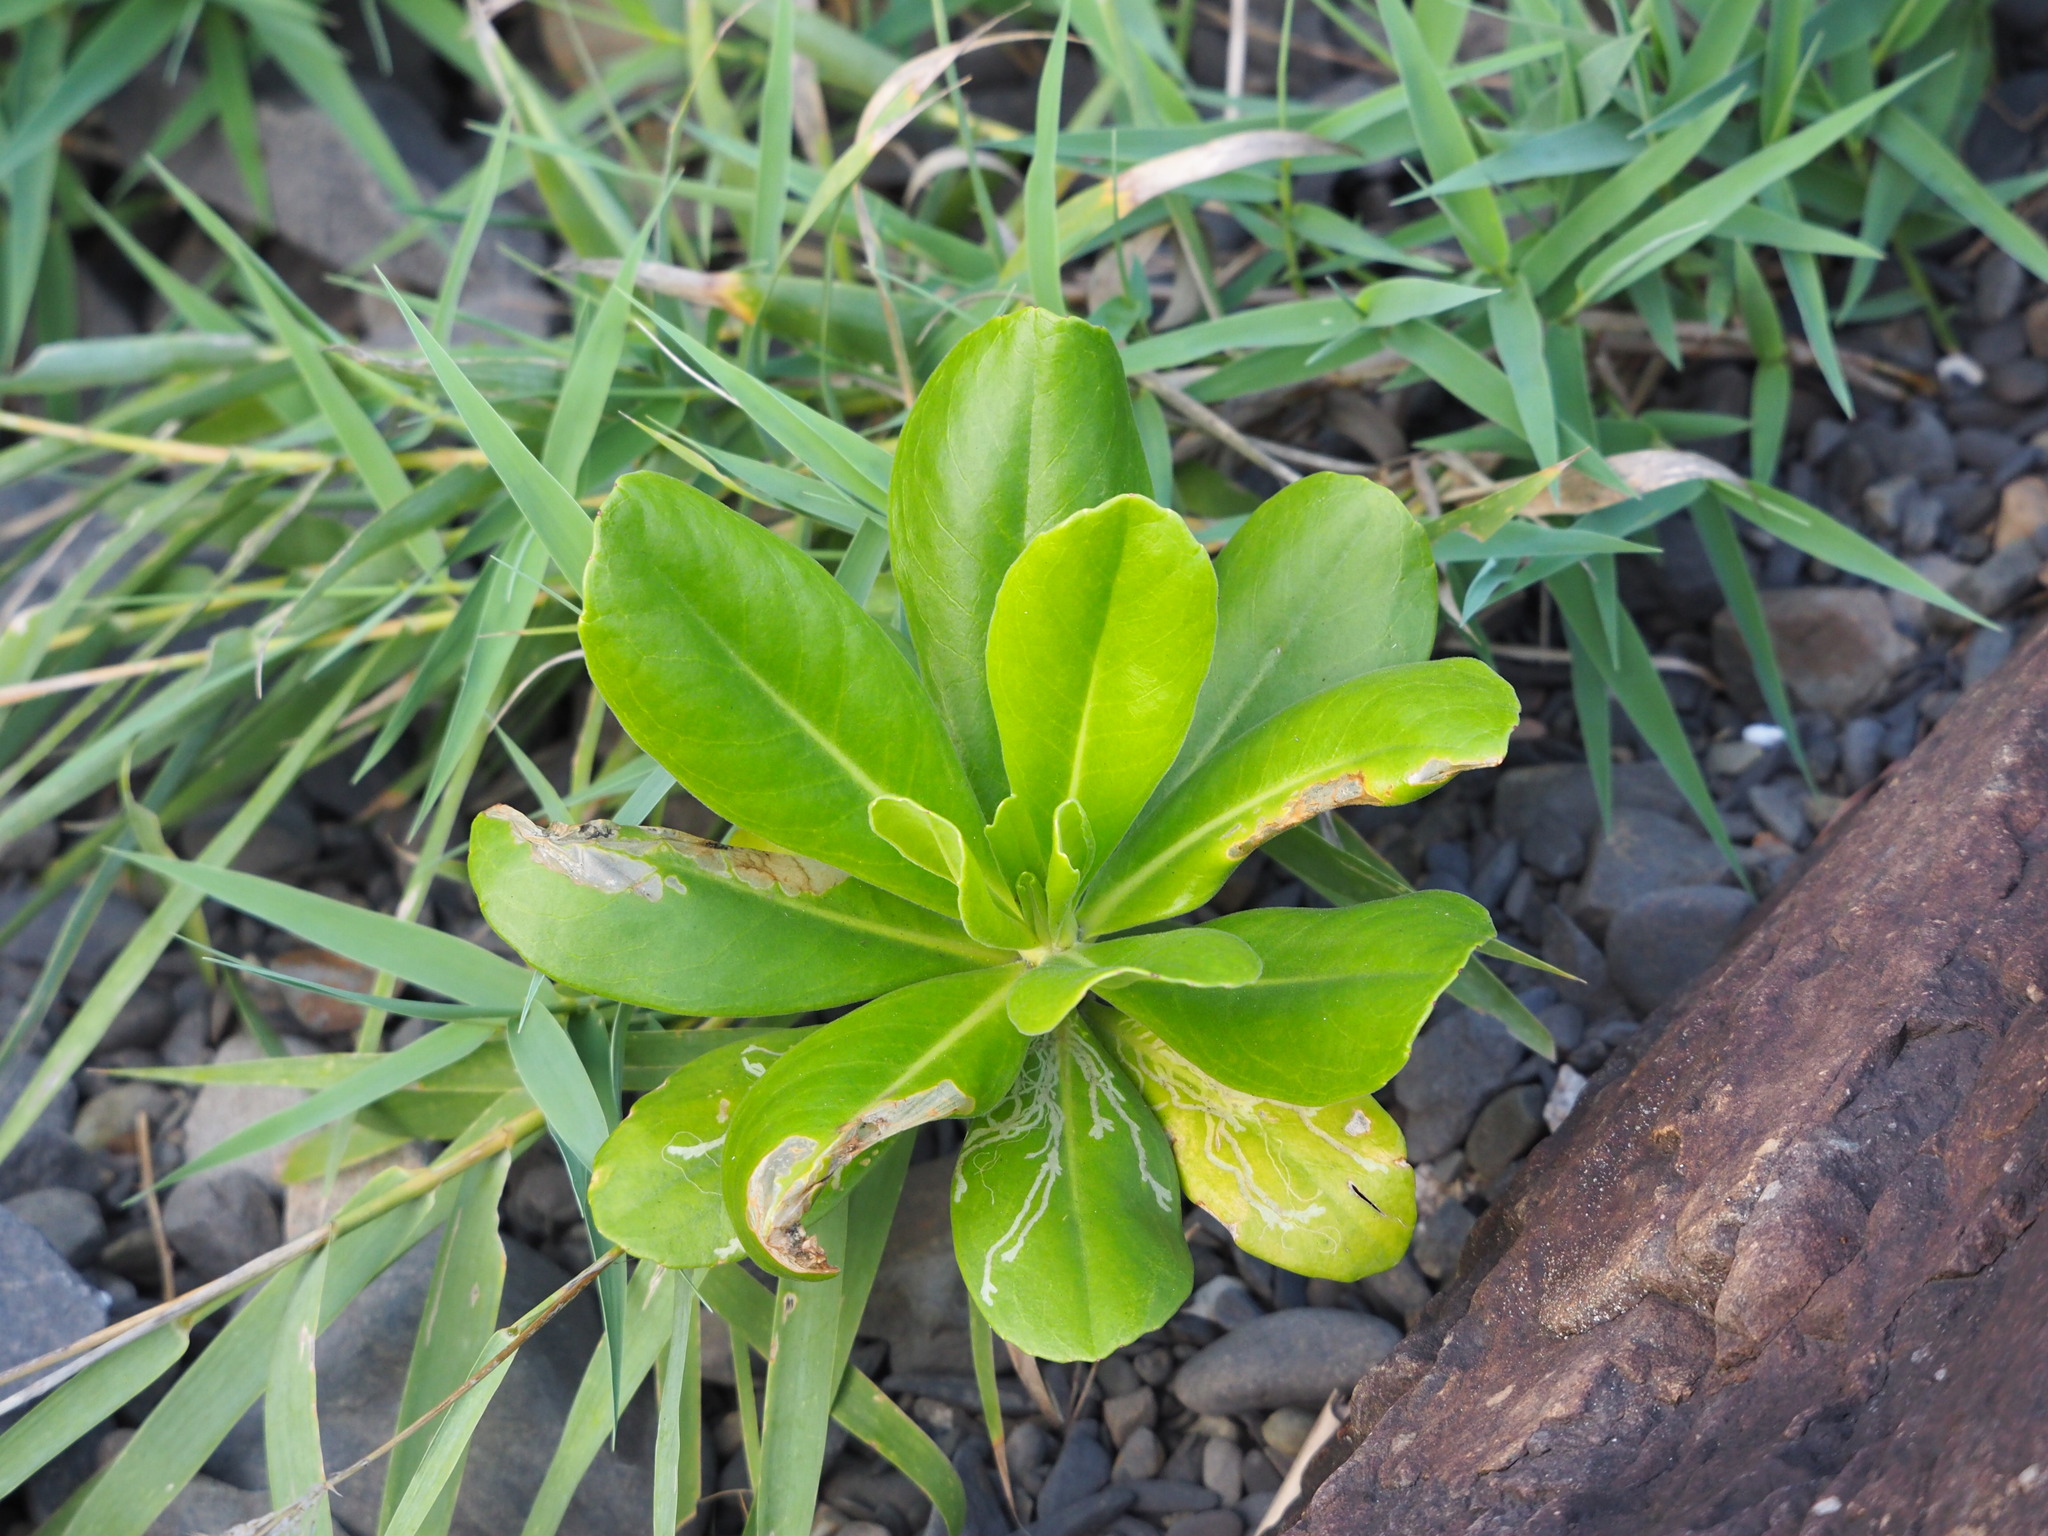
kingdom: Plantae
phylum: Tracheophyta
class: Magnoliopsida
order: Asterales
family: Goodeniaceae
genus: Scaevola
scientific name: Scaevola taccada
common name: Sea lettucetree
